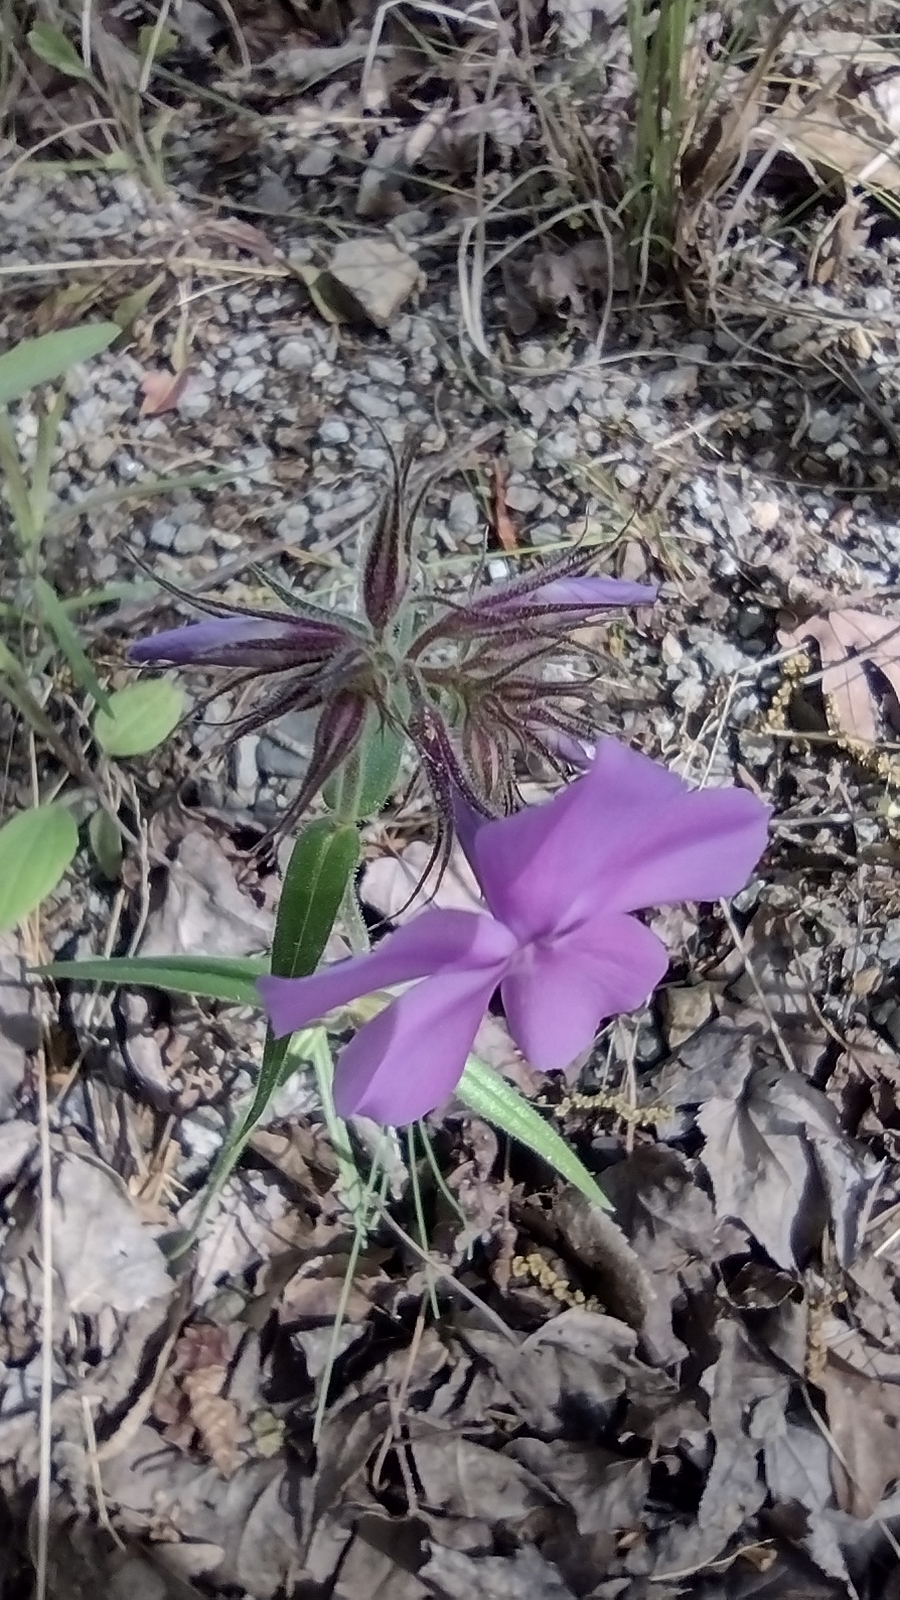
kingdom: Plantae
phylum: Tracheophyta
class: Magnoliopsida
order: Ericales
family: Polemoniaceae
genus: Phlox
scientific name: Phlox pilosa
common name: Prairie phlox
